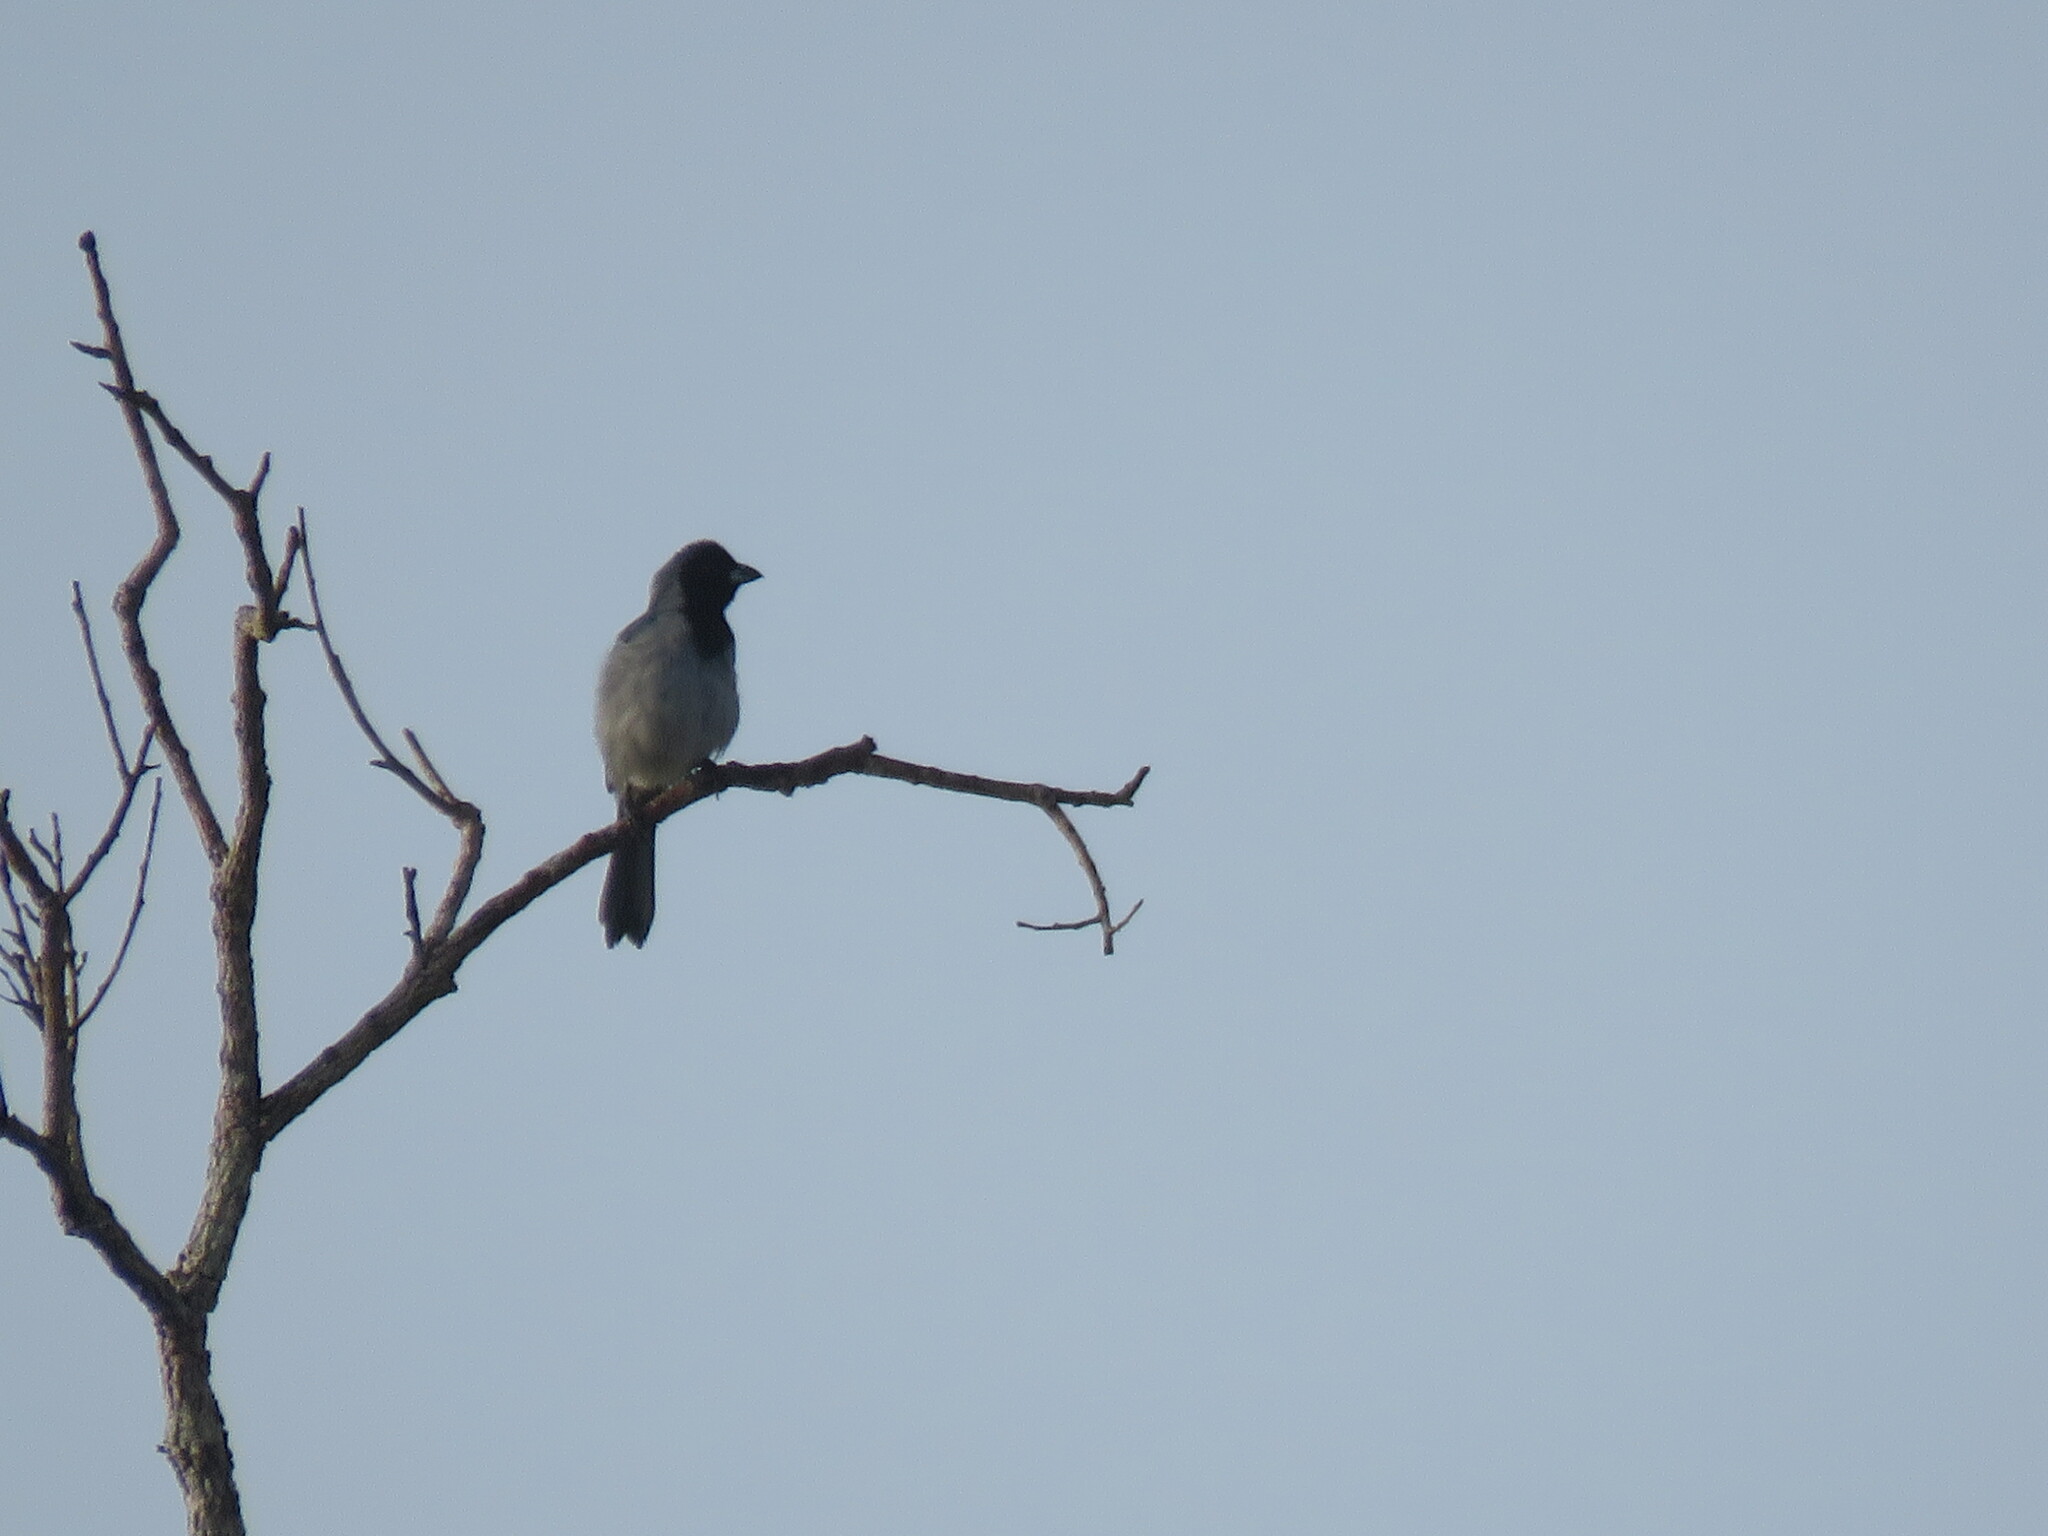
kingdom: Animalia
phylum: Chordata
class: Aves
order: Passeriformes
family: Thraupidae
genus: Schistochlamys
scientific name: Schistochlamys melanopis
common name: Black-faced tanager
